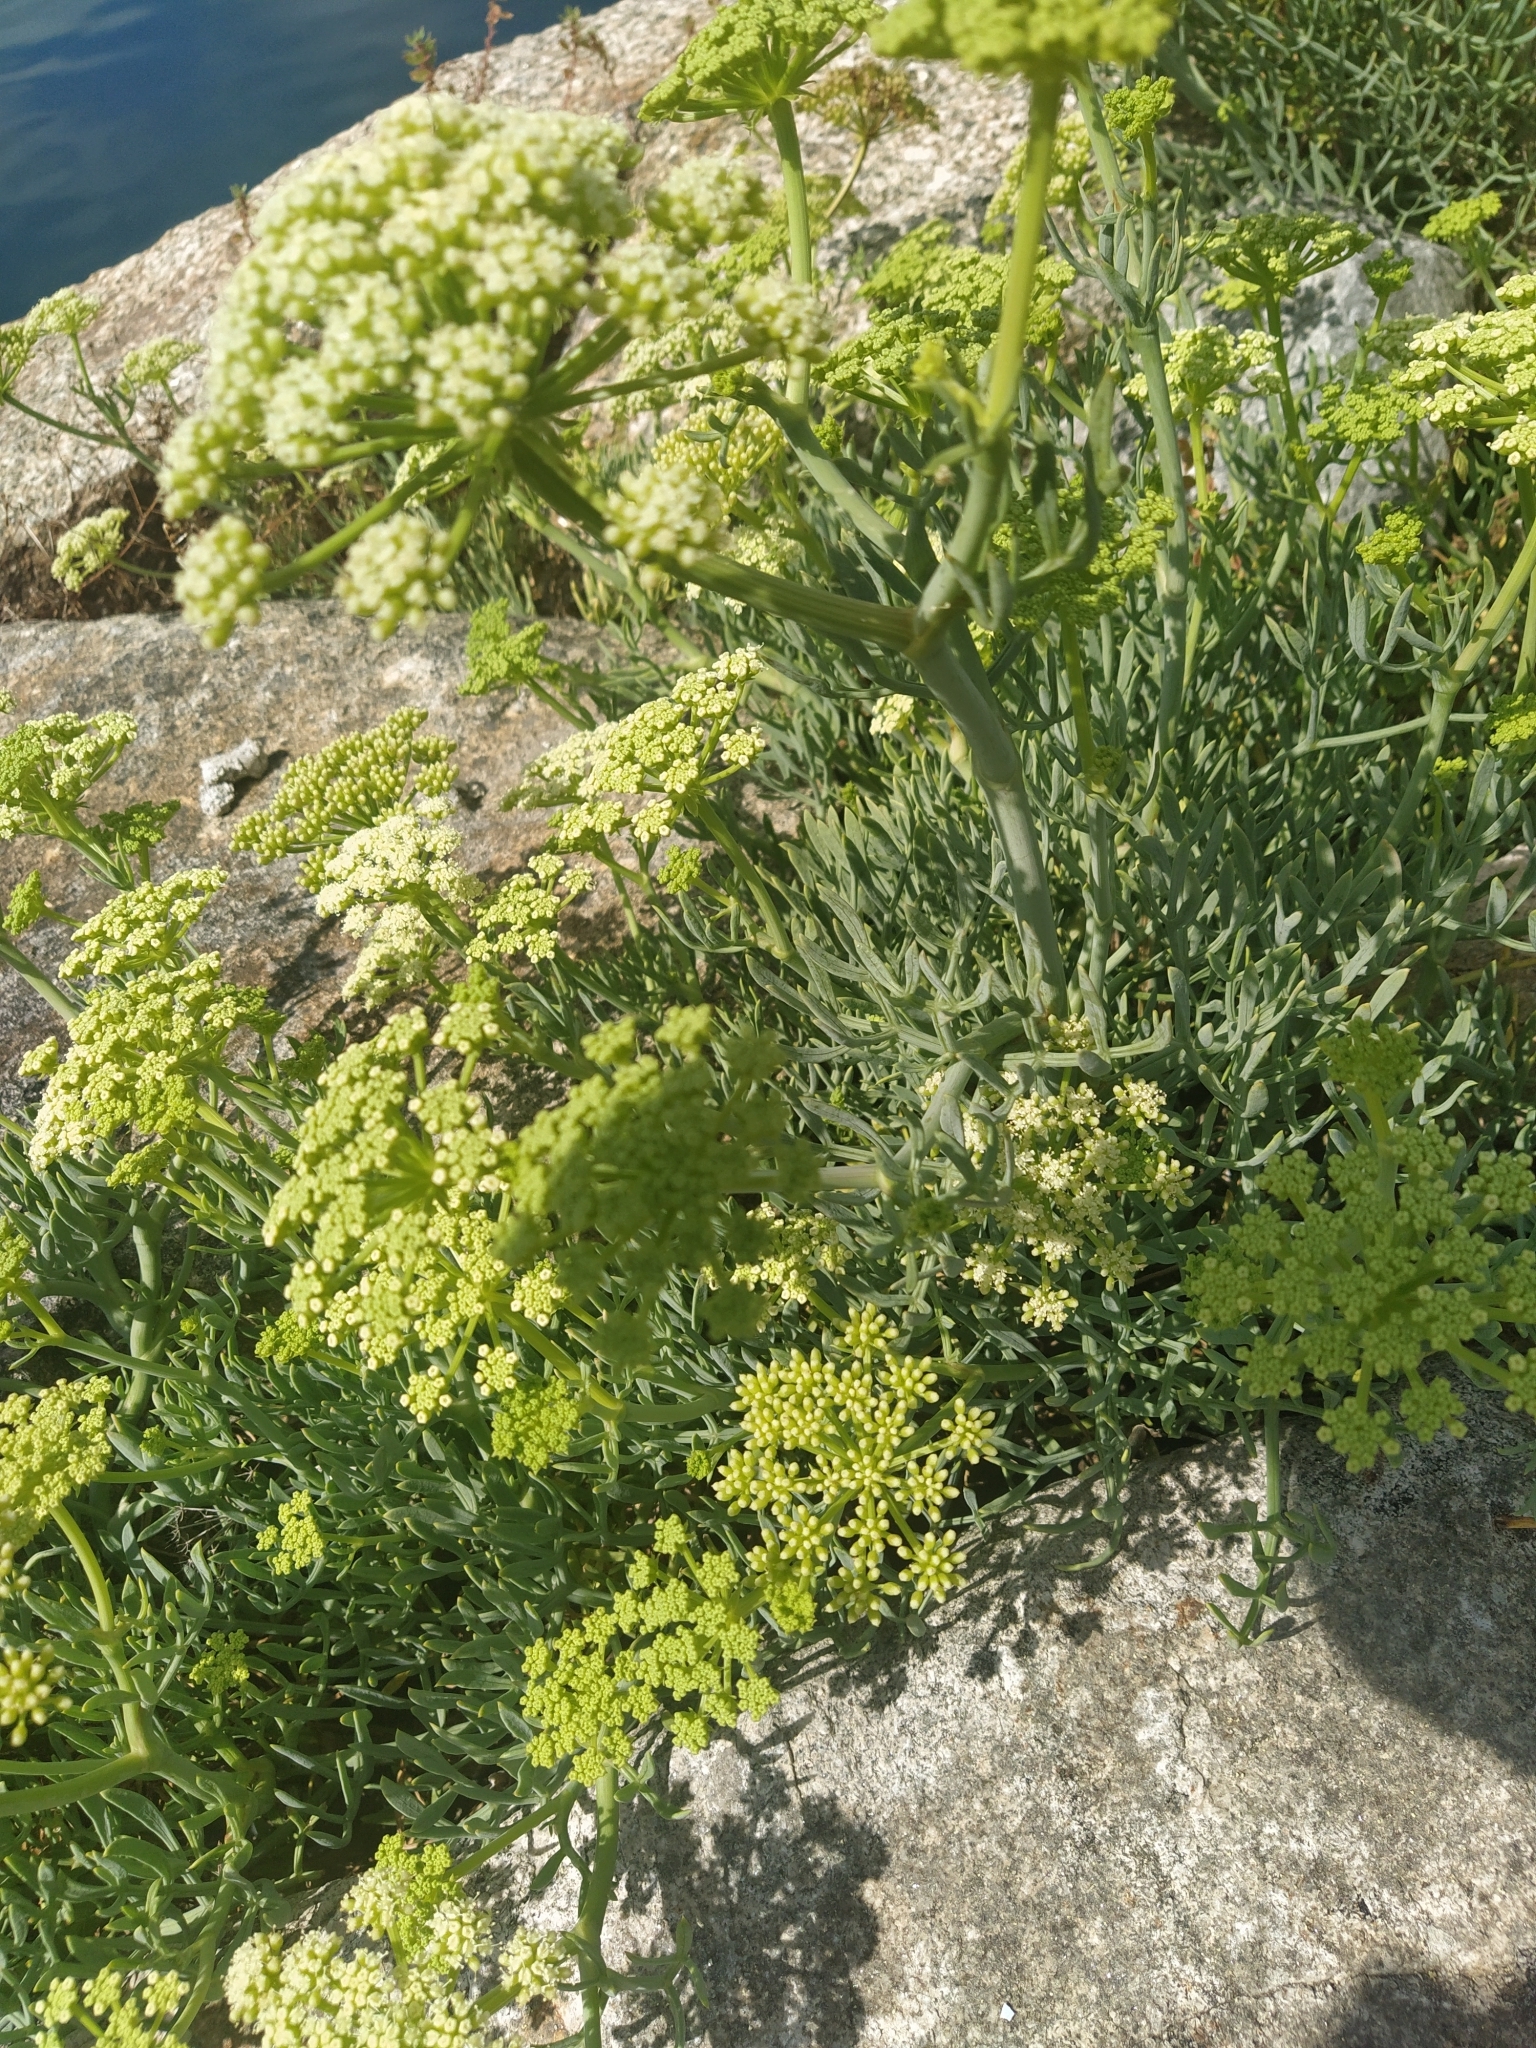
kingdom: Plantae
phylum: Tracheophyta
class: Magnoliopsida
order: Apiales
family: Apiaceae
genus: Crithmum
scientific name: Crithmum maritimum
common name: Rock samphire
